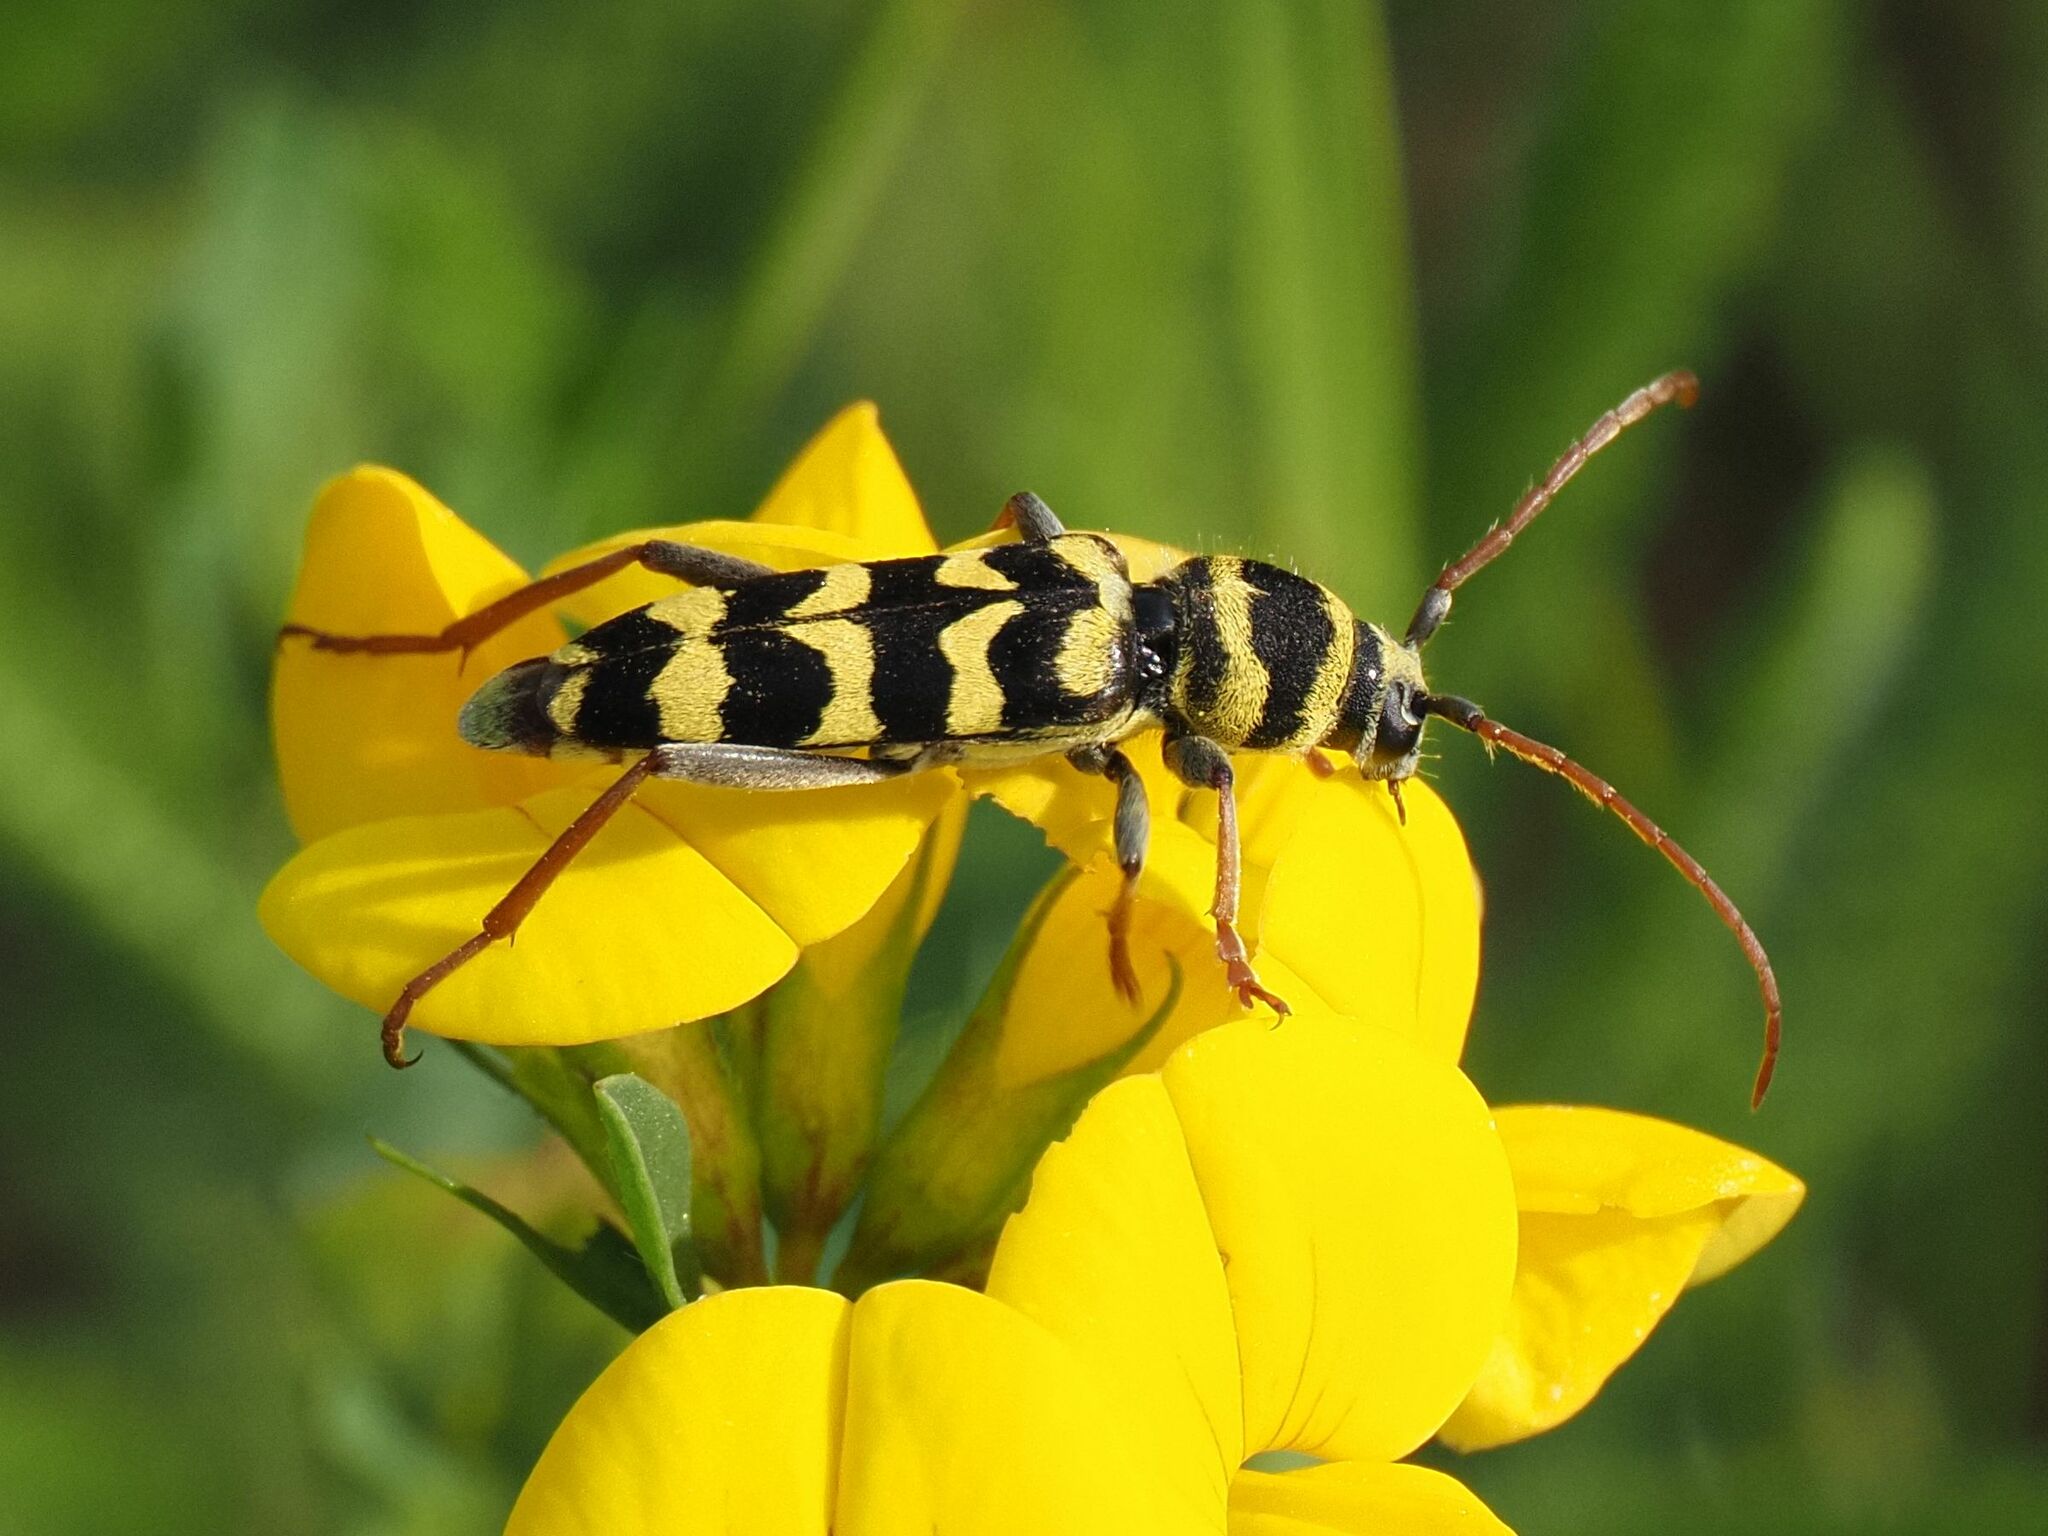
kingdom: Animalia
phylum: Arthropoda
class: Insecta
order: Coleoptera
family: Cerambycidae
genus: Plagionotus
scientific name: Plagionotus floralis
